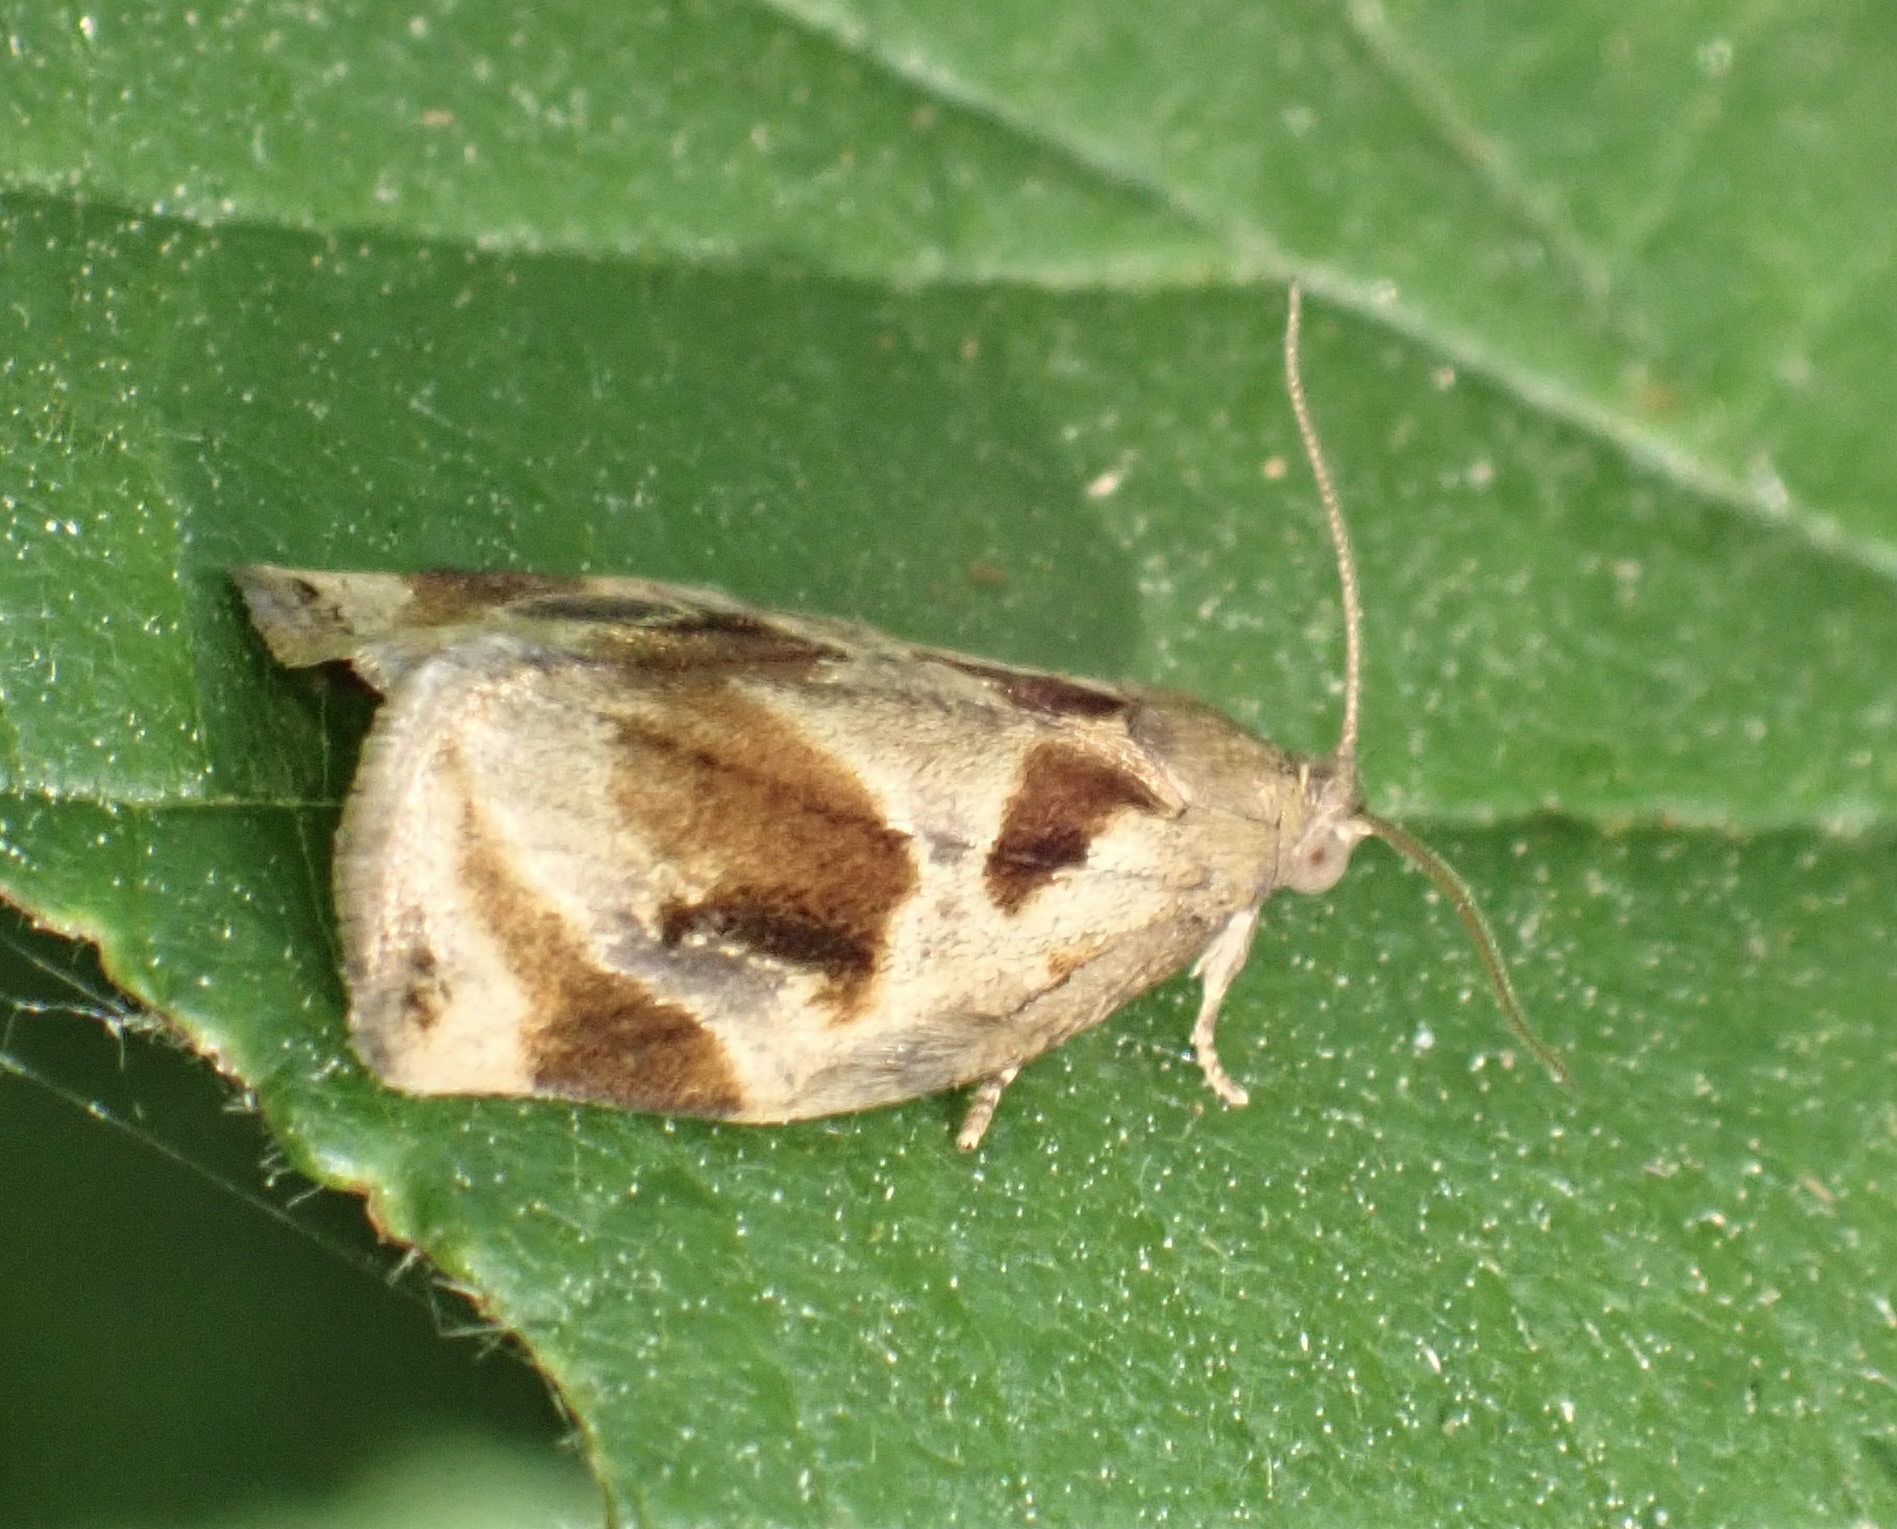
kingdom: Animalia
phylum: Arthropoda
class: Insecta
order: Lepidoptera
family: Tortricidae
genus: Archips
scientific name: Archips crataegana
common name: Brown oak tortrix
